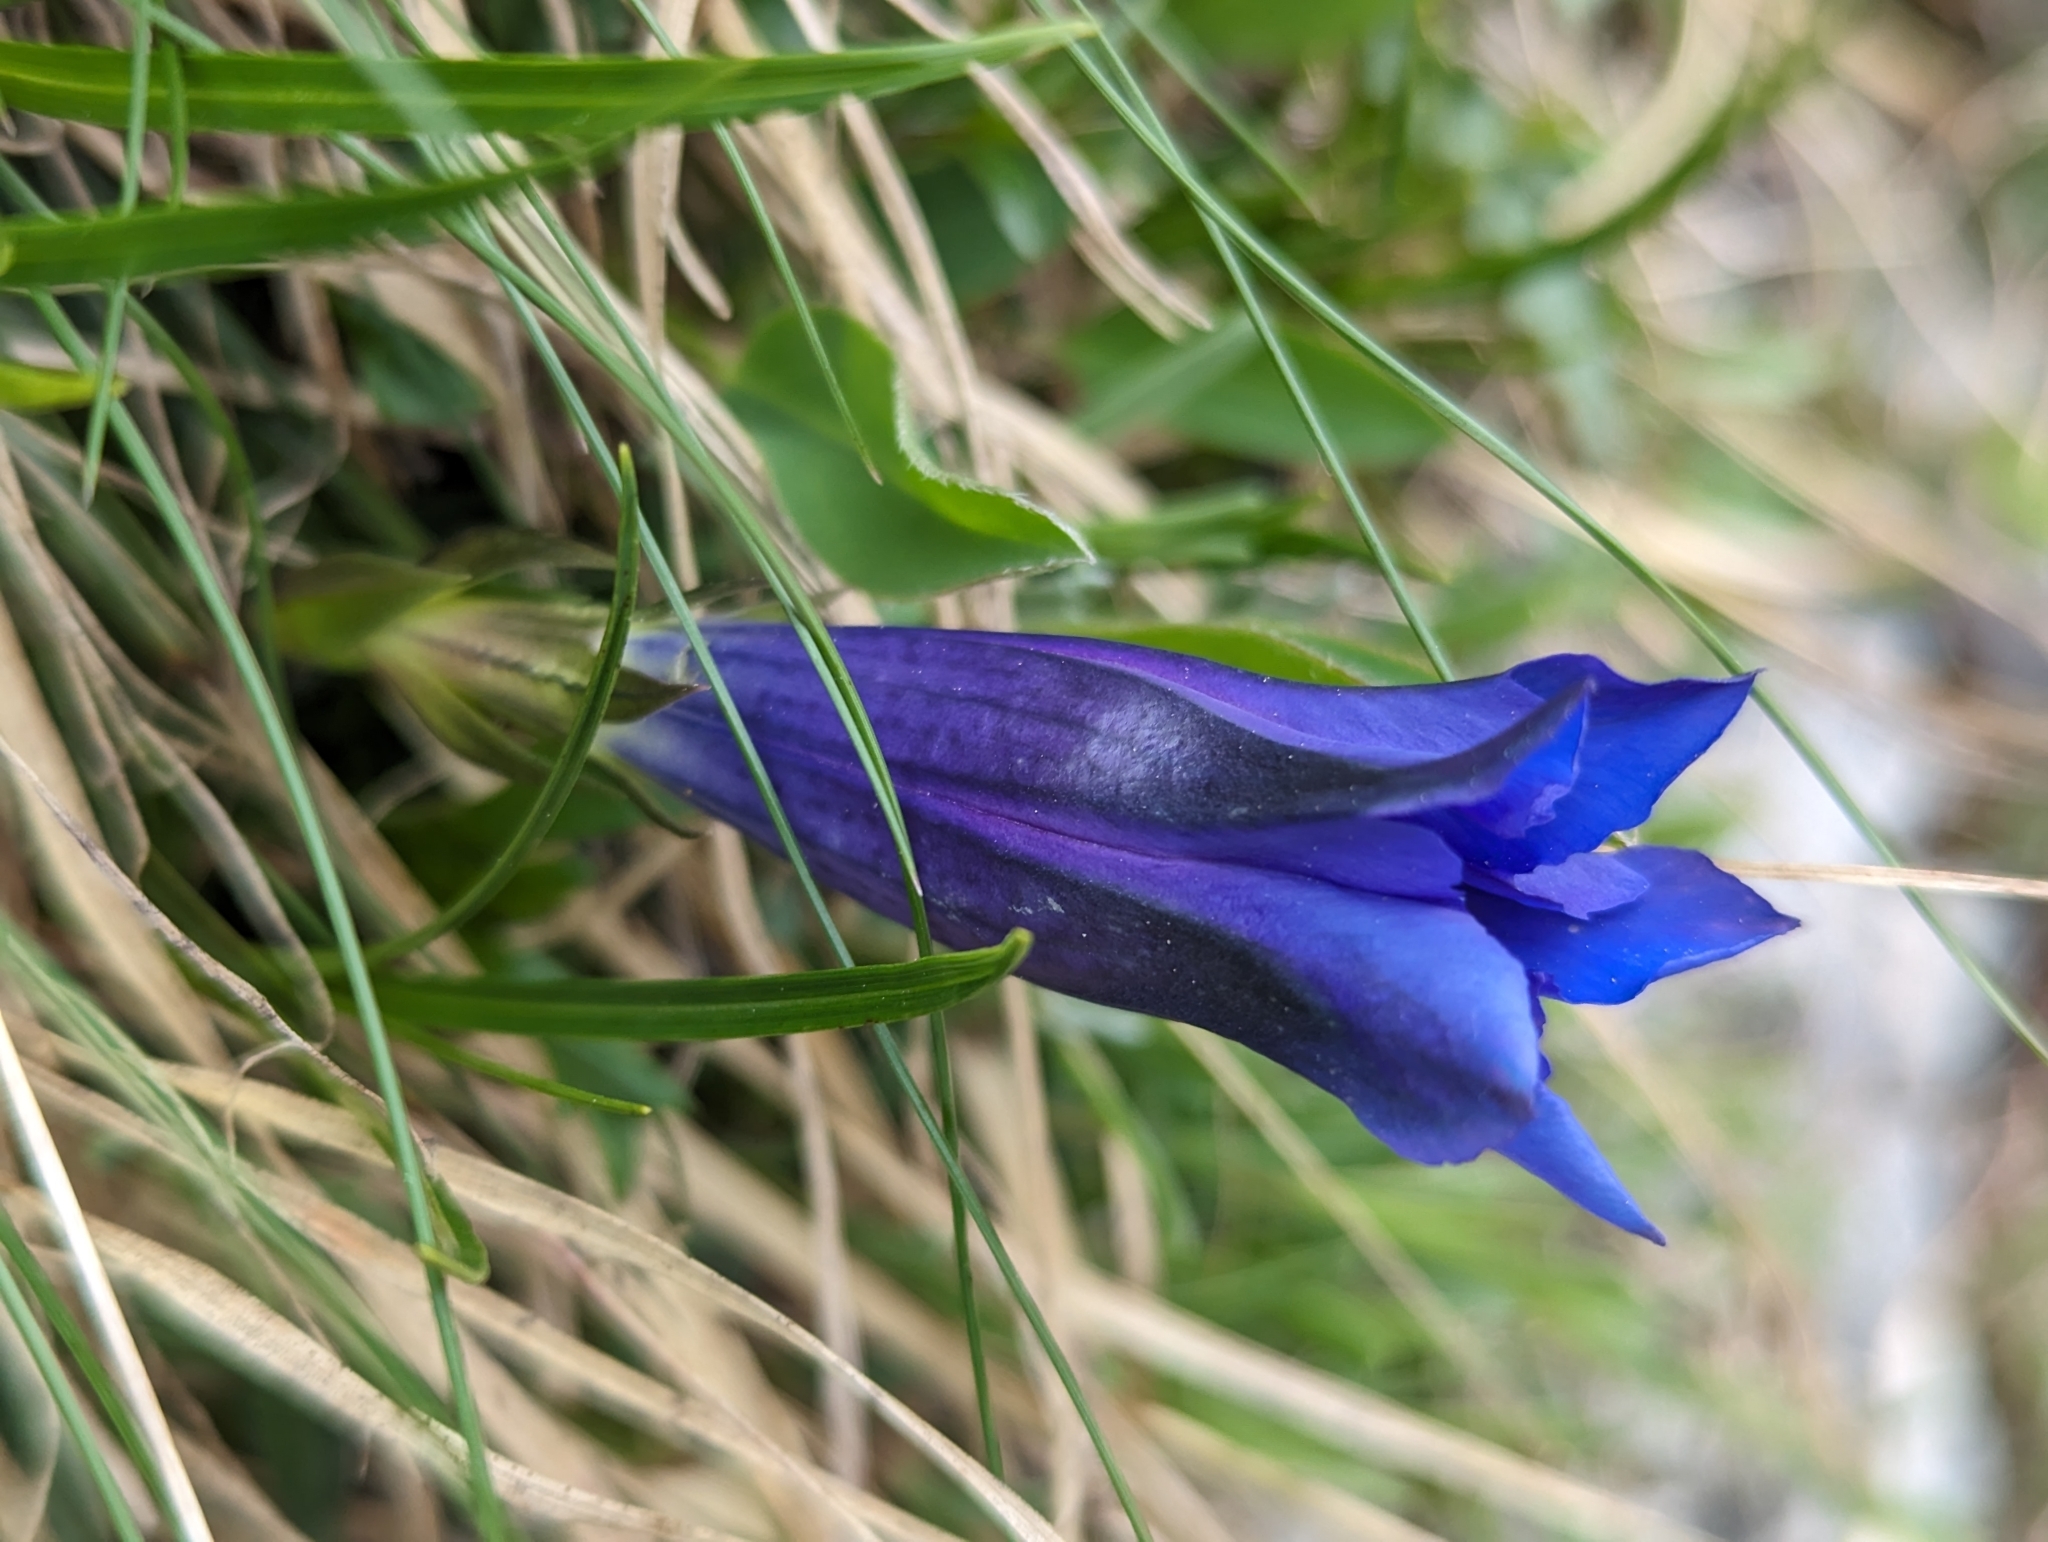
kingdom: Plantae
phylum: Tracheophyta
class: Magnoliopsida
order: Gentianales
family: Gentianaceae
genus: Gentiana
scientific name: Gentiana clusii
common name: Trumpet gentian
